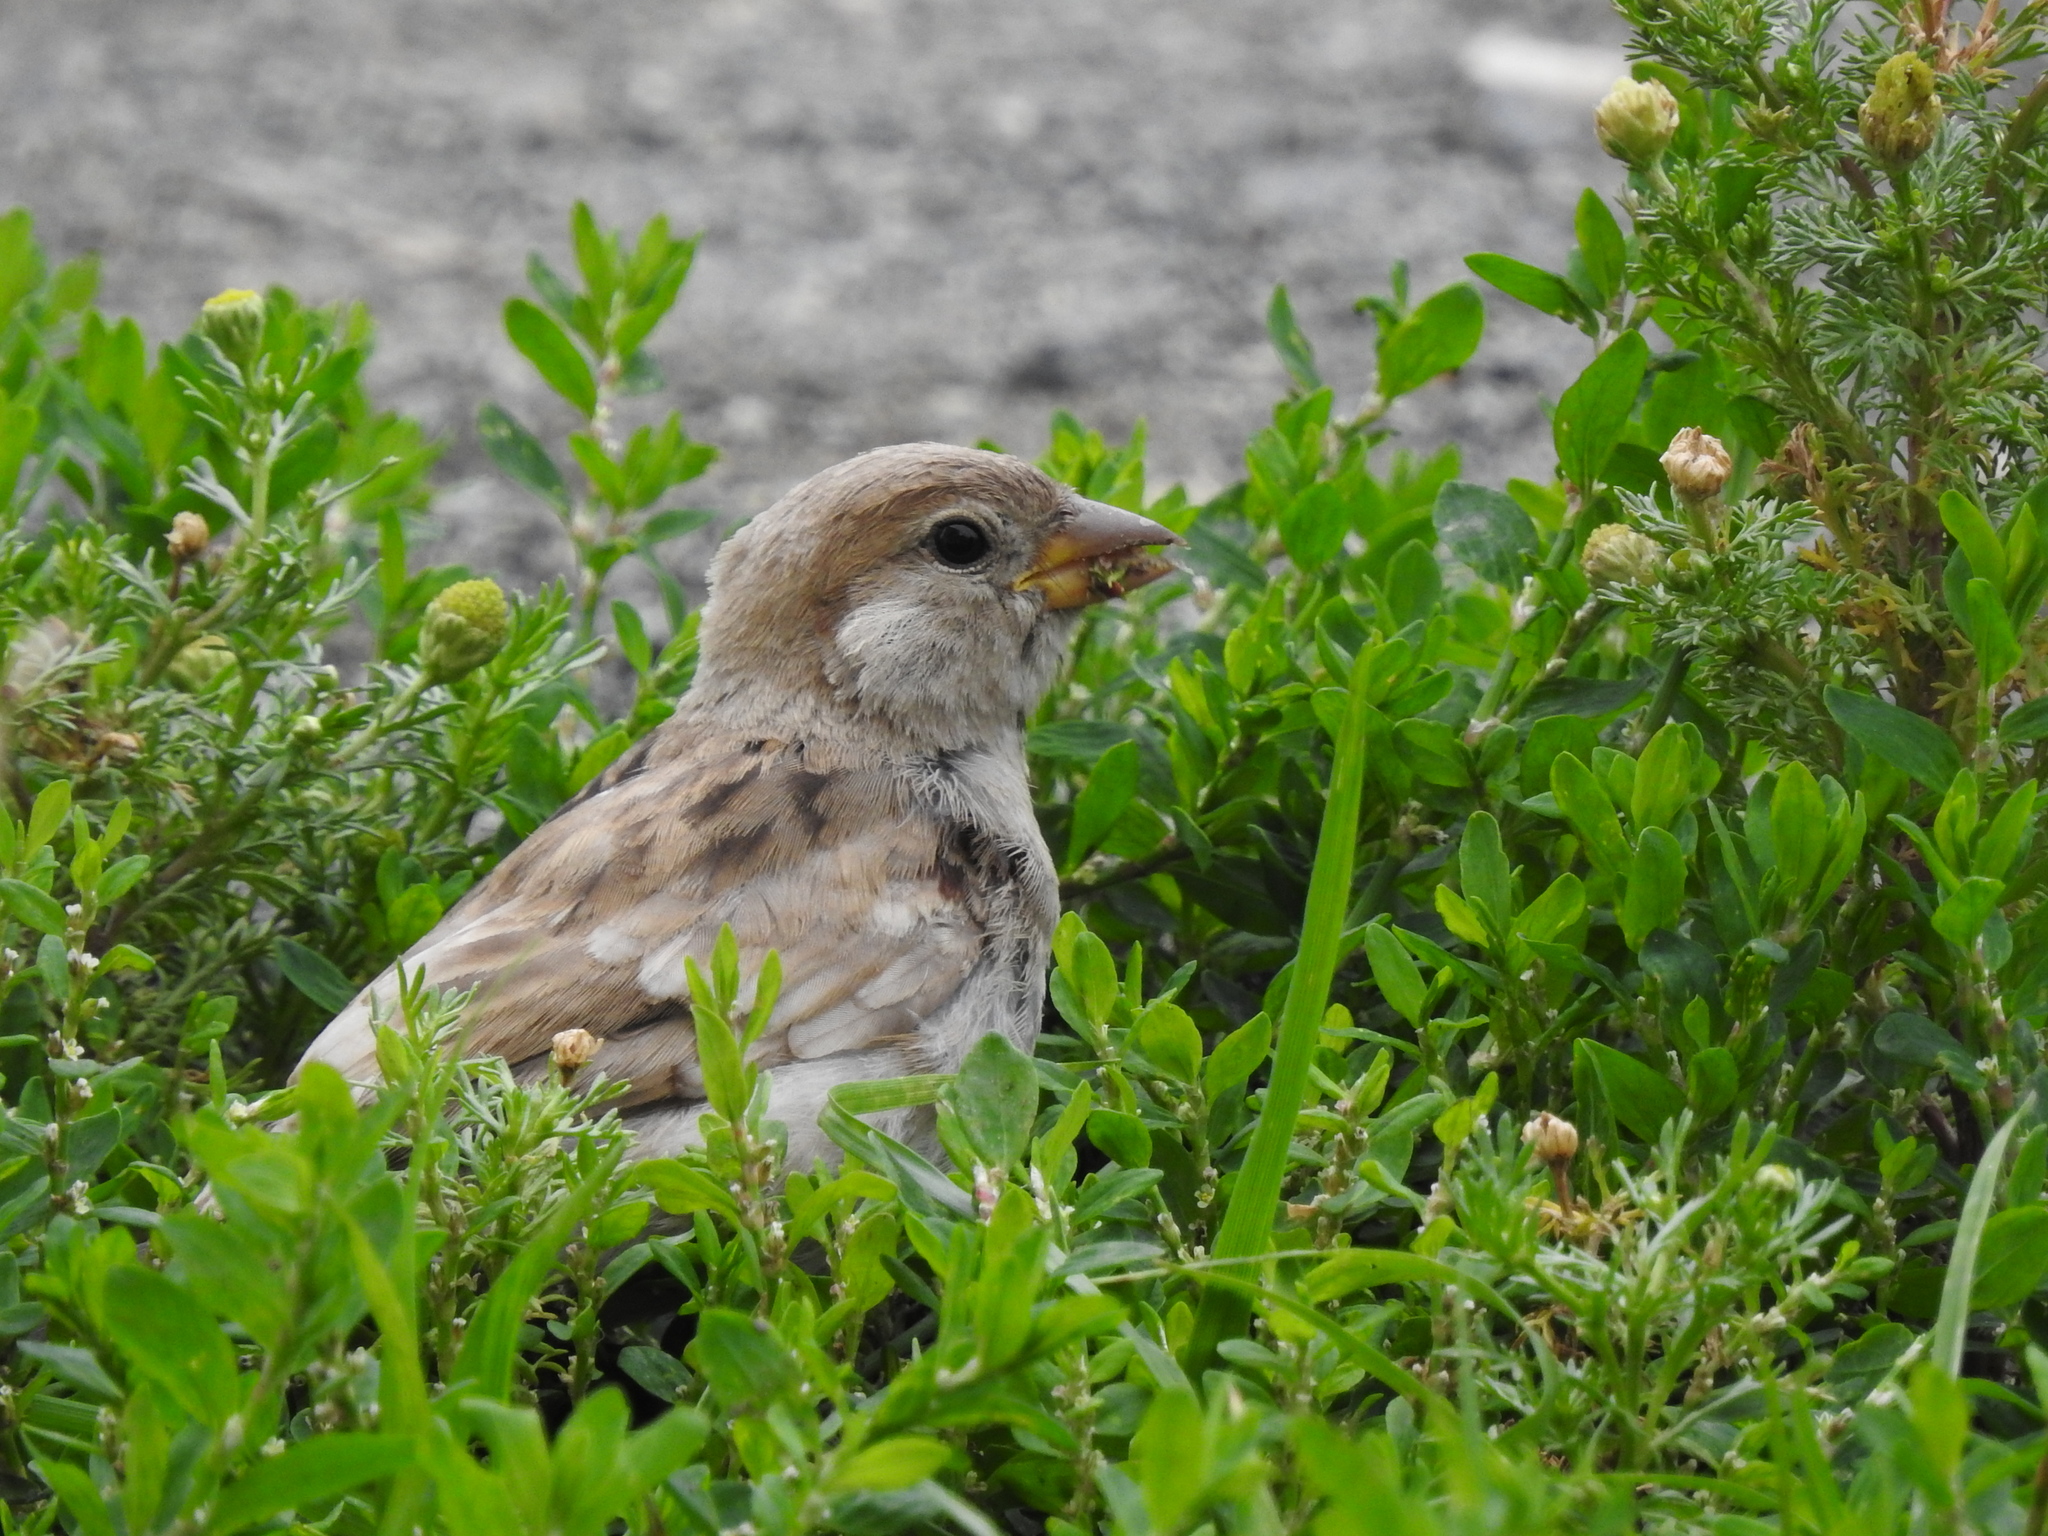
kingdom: Animalia
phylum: Chordata
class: Aves
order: Passeriformes
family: Passeridae
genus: Passer
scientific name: Passer domesticus
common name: House sparrow
